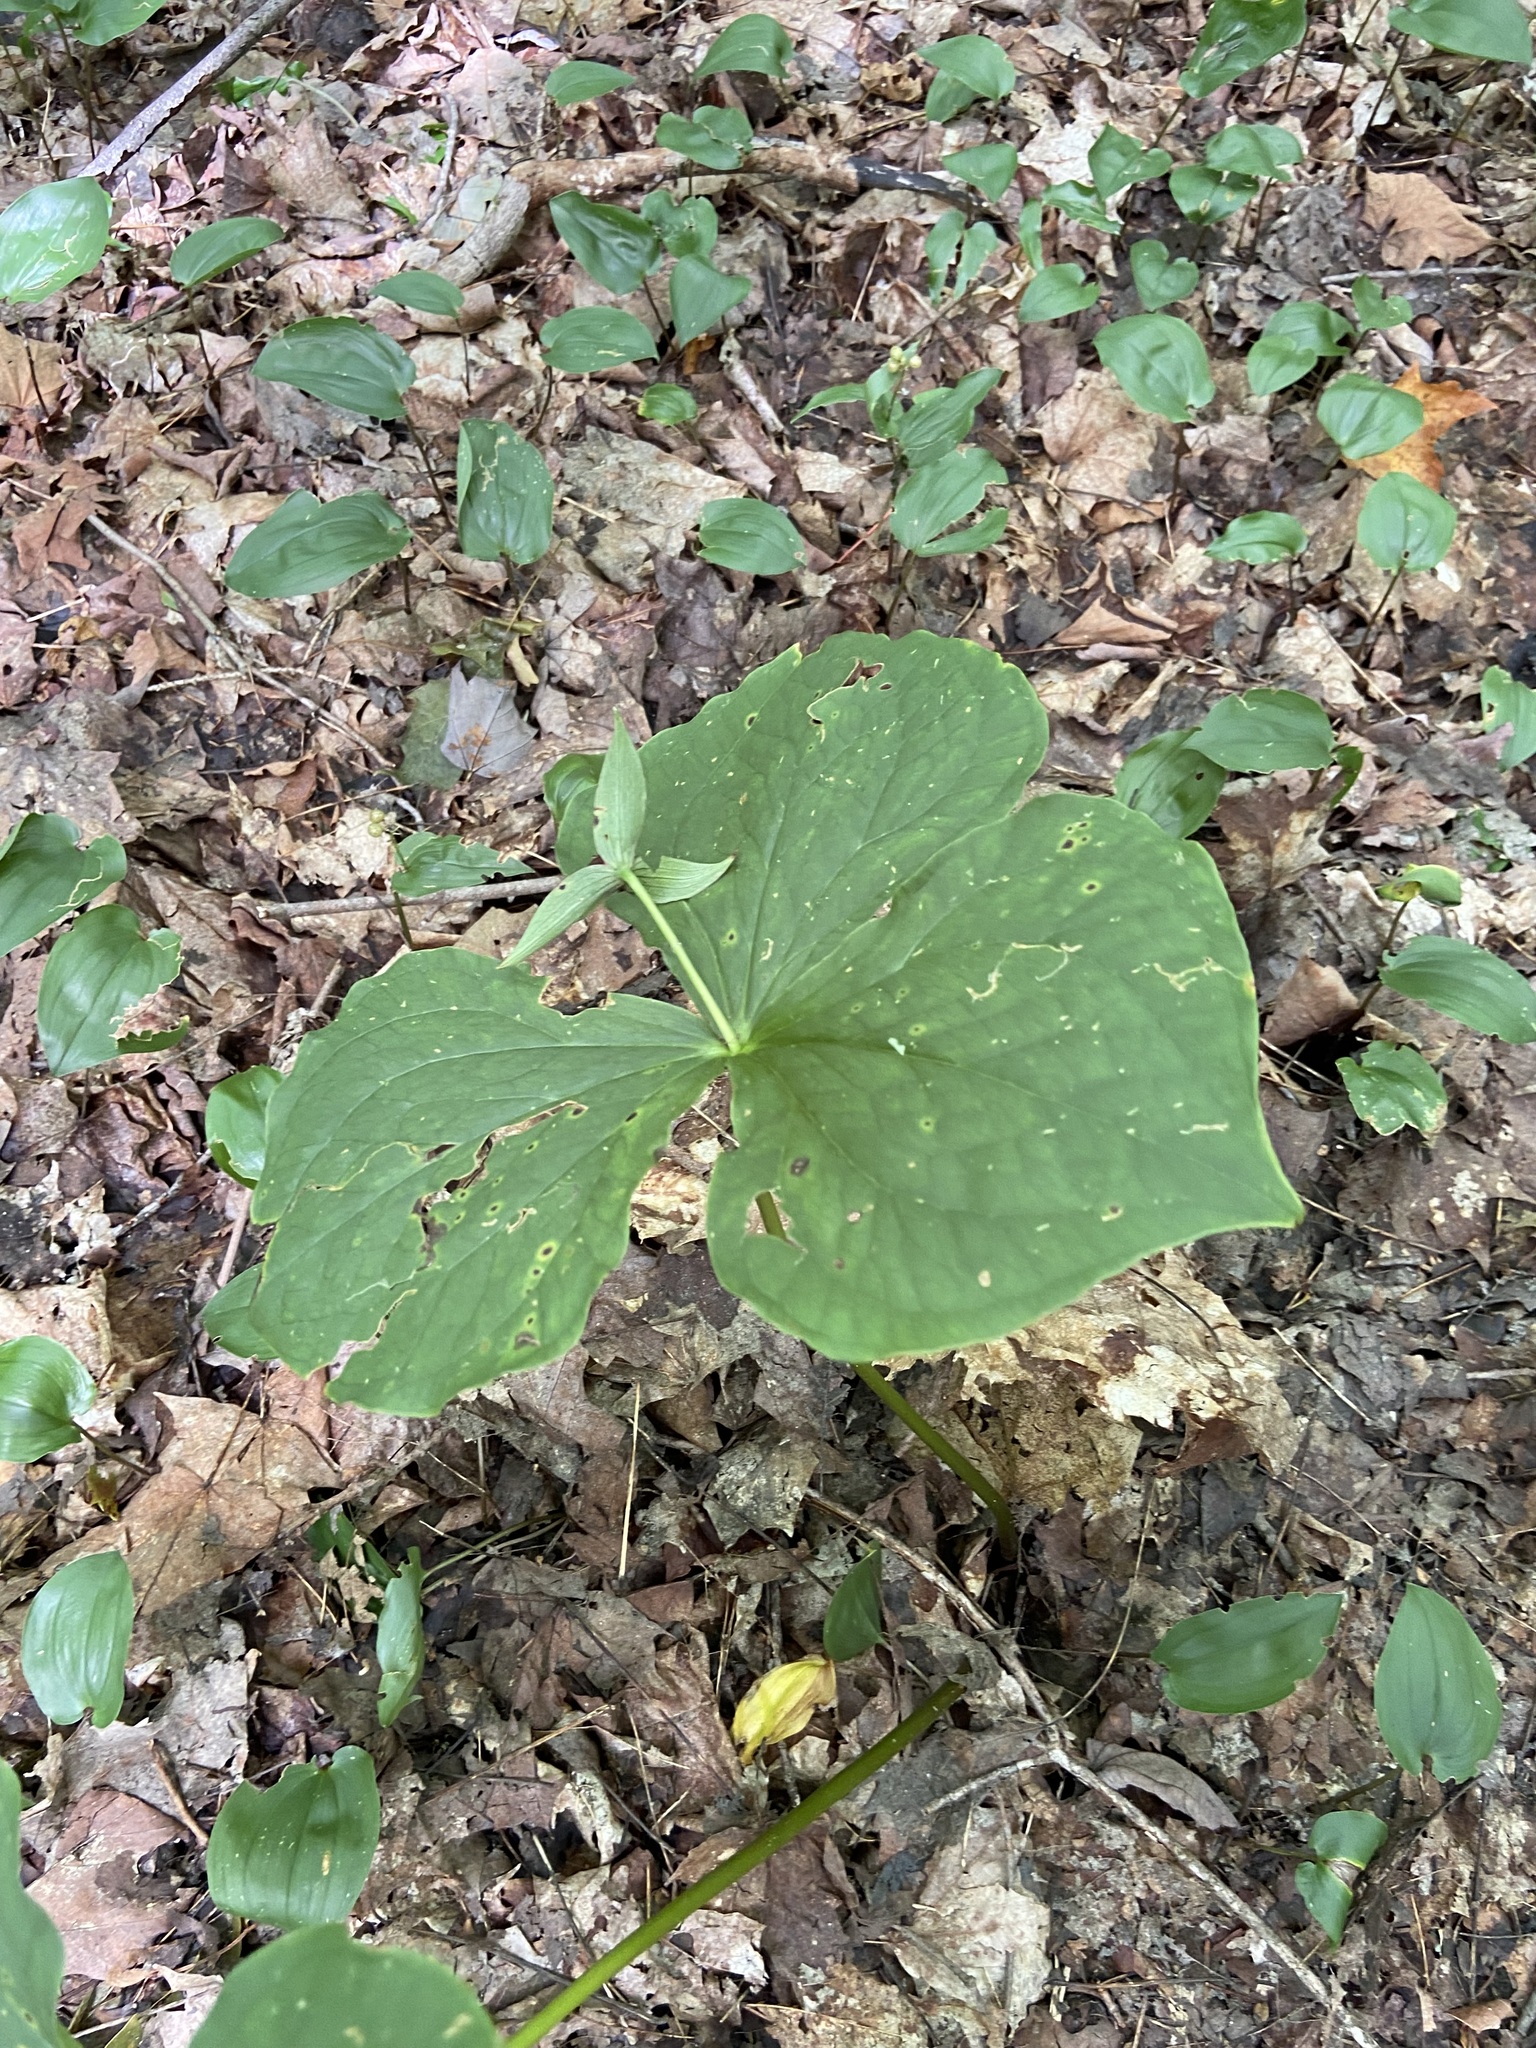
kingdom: Plantae
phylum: Tracheophyta
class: Liliopsida
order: Liliales
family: Melanthiaceae
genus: Trillium
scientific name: Trillium erectum
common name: Purple trillium
